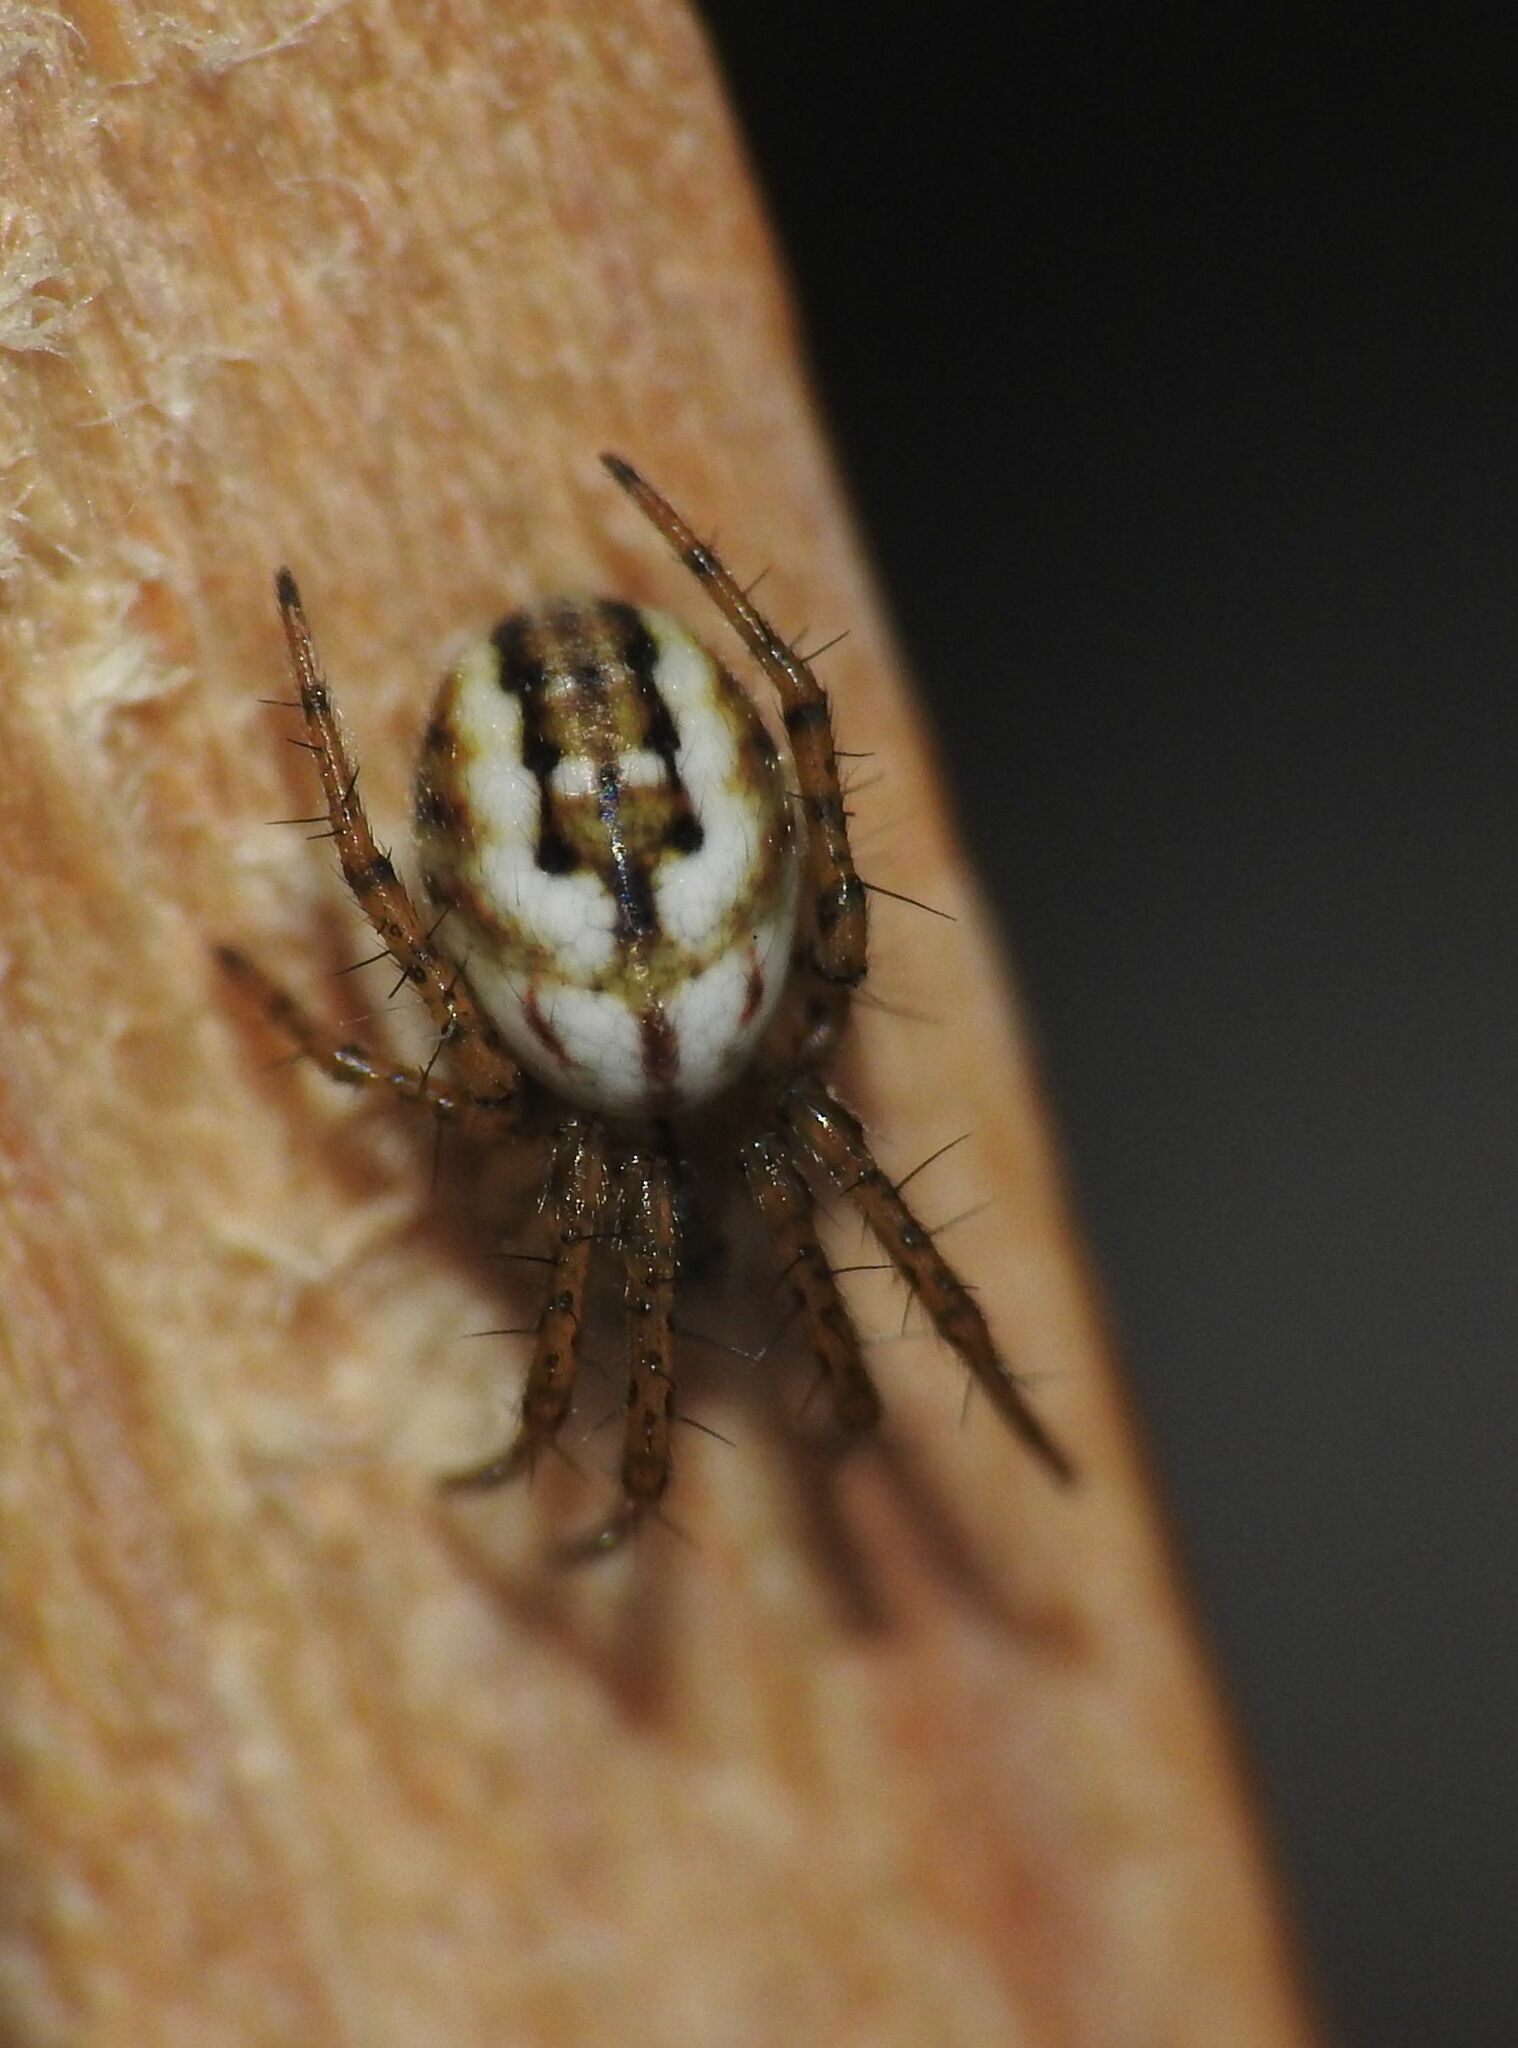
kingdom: Animalia
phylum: Arthropoda
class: Arachnida
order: Araneae
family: Araneidae
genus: Mangora
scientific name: Mangora acalypha
